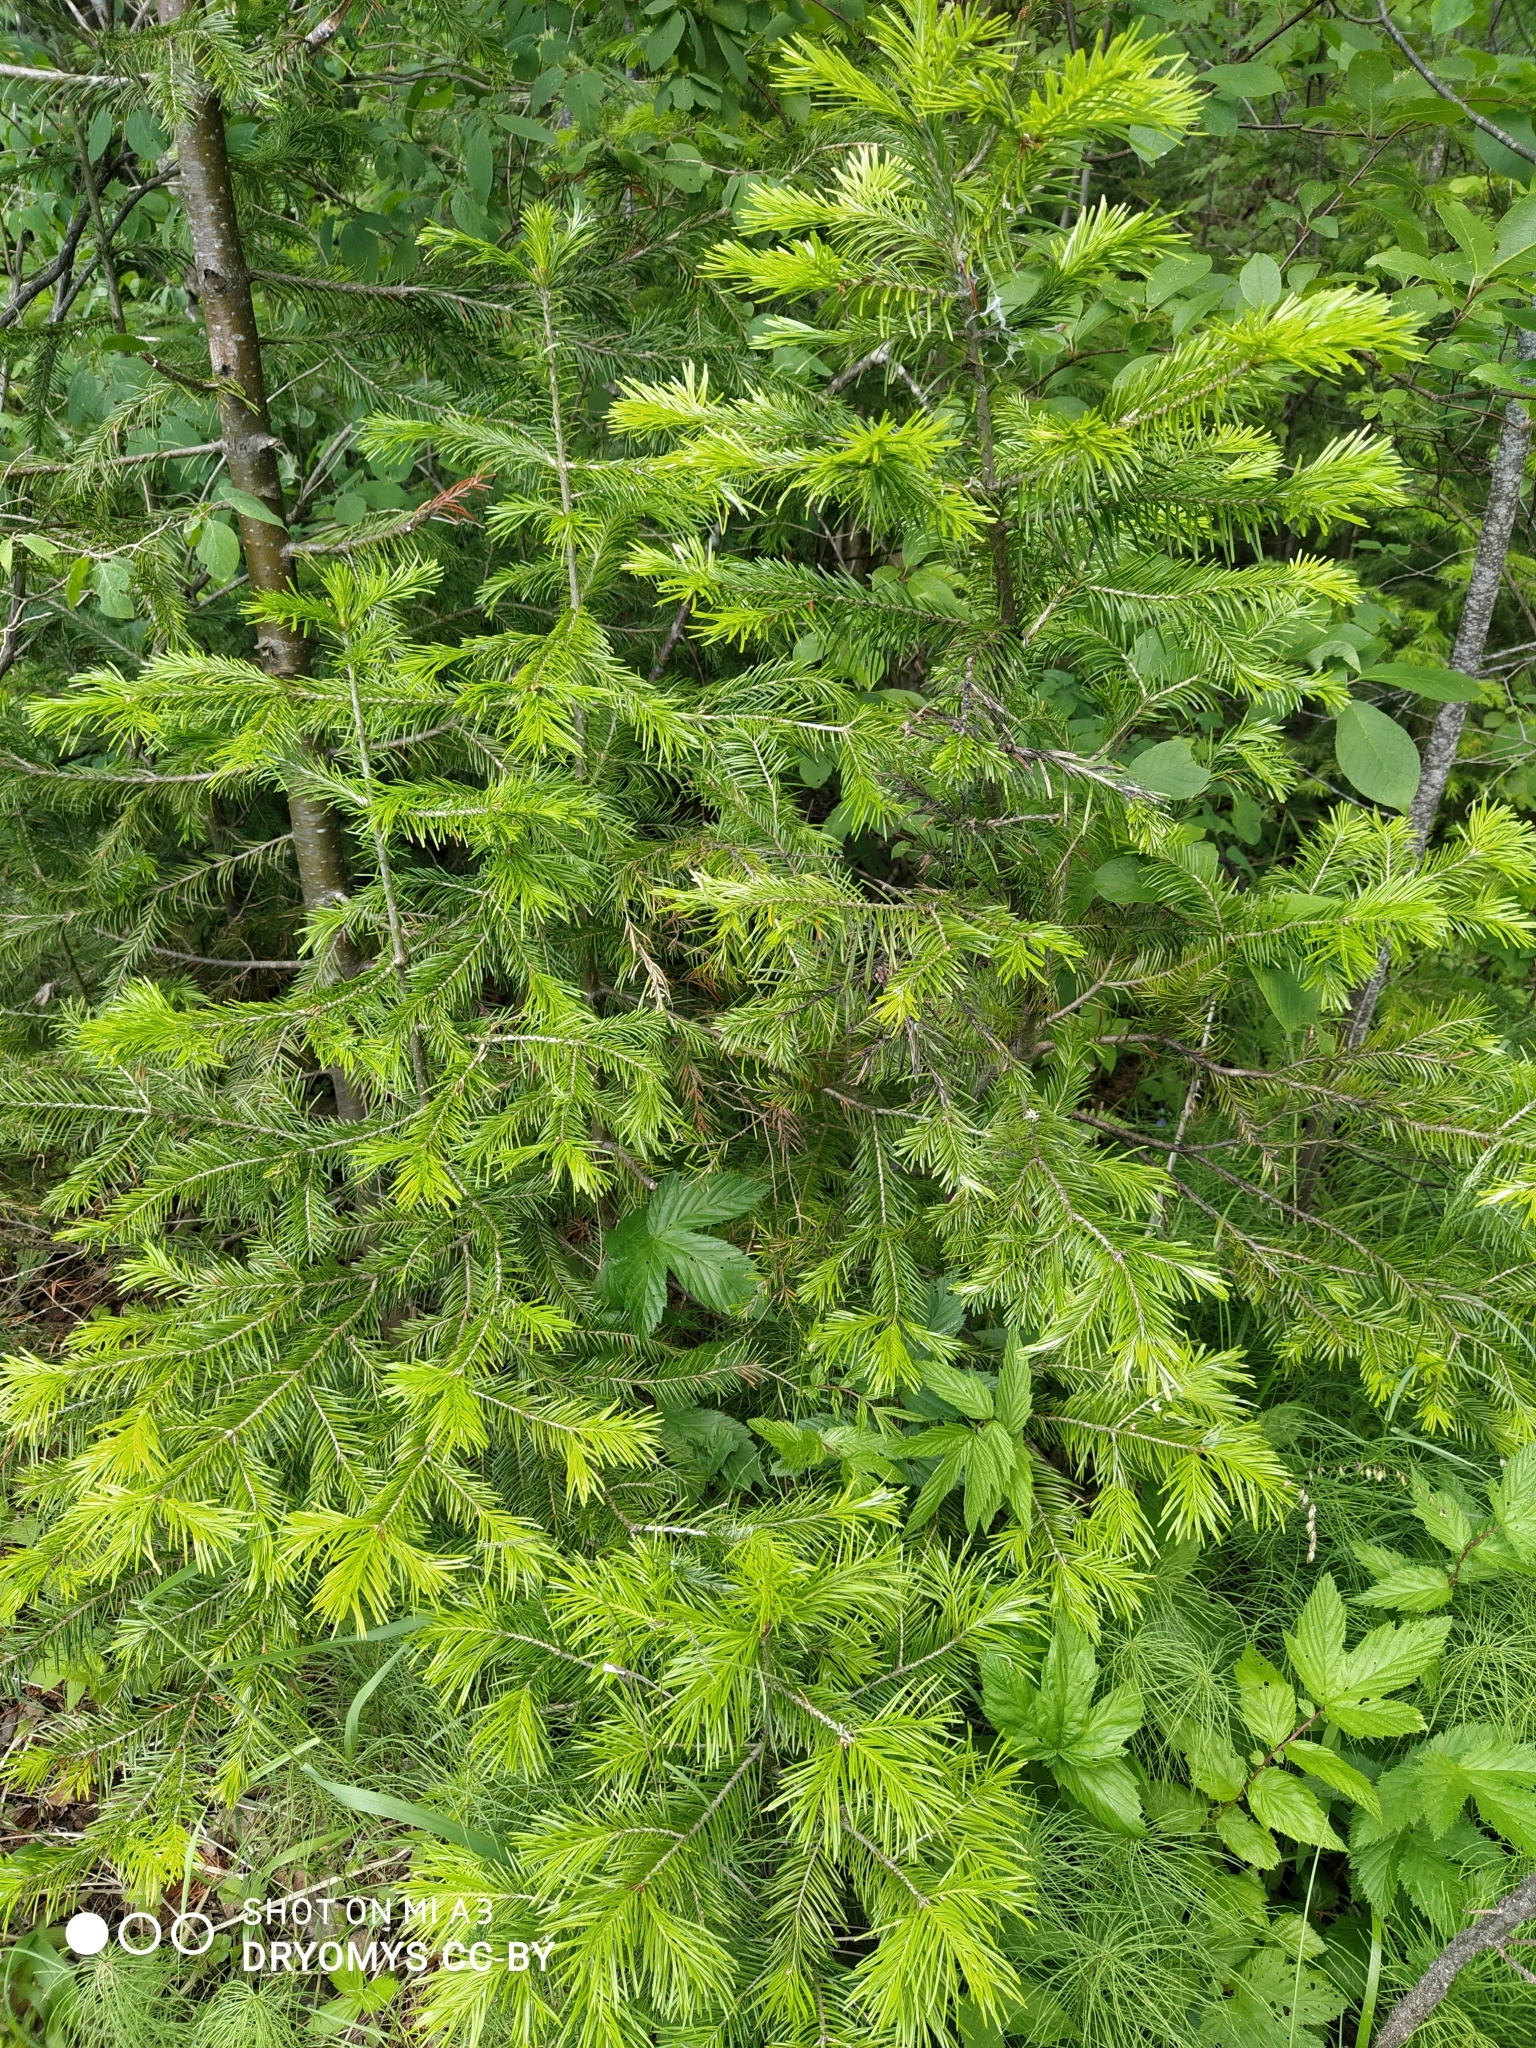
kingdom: Plantae
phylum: Tracheophyta
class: Pinopsida
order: Pinales
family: Pinaceae
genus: Abies
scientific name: Abies sibirica
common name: Siberian fir
